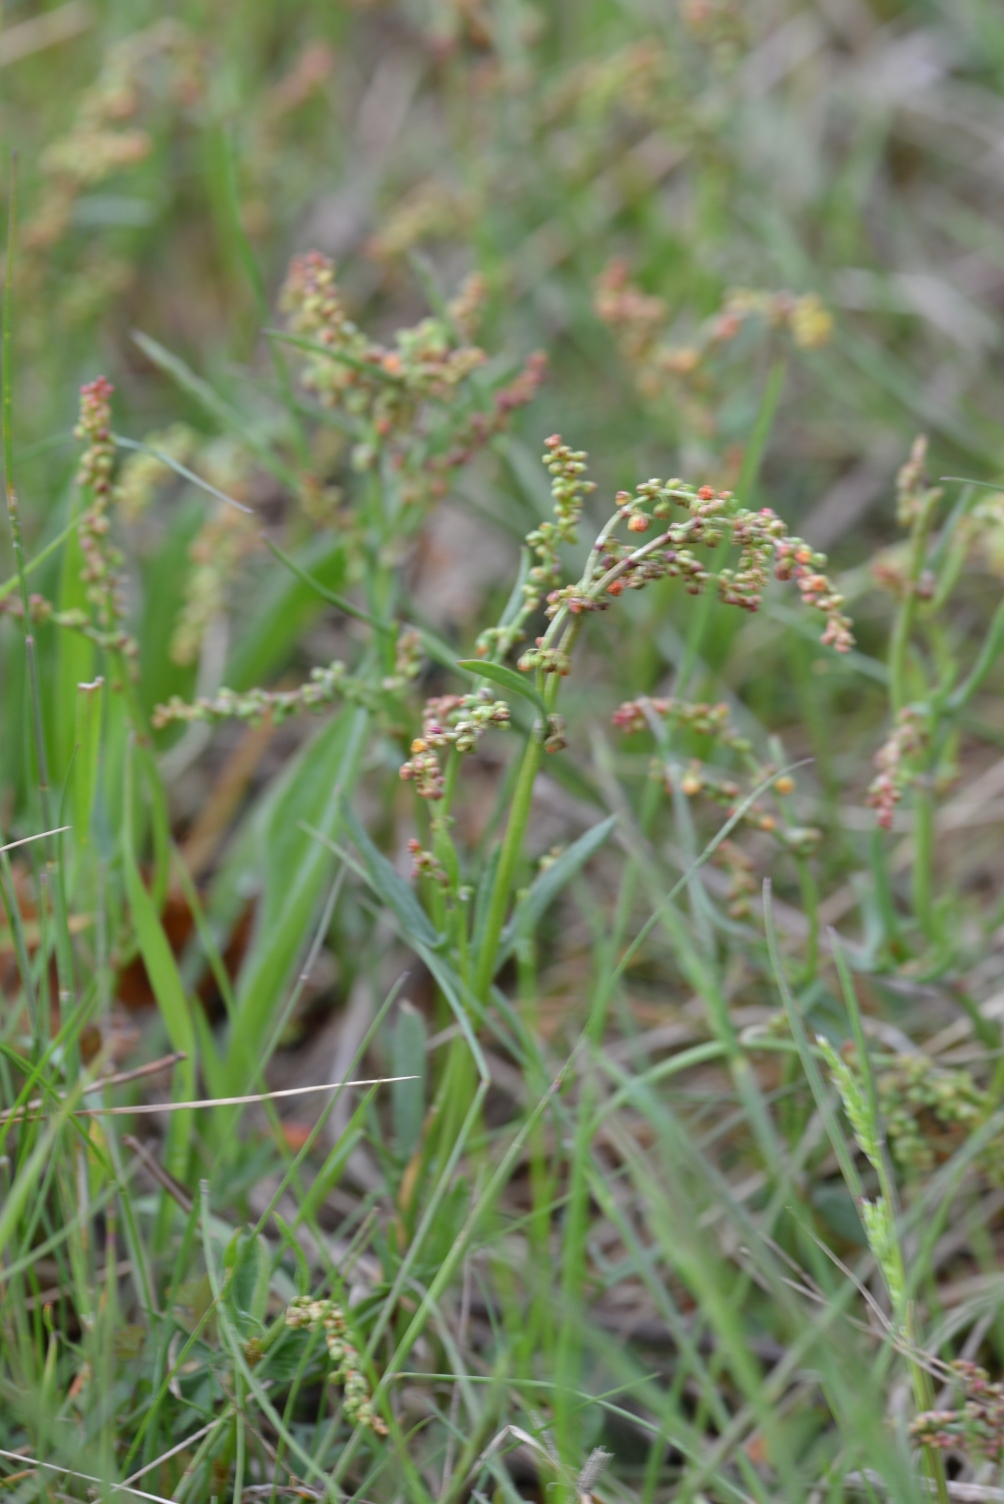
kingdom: Plantae
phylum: Tracheophyta
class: Magnoliopsida
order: Caryophyllales
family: Polygonaceae
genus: Rumex
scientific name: Rumex acetosella
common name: Common sheep sorrel
